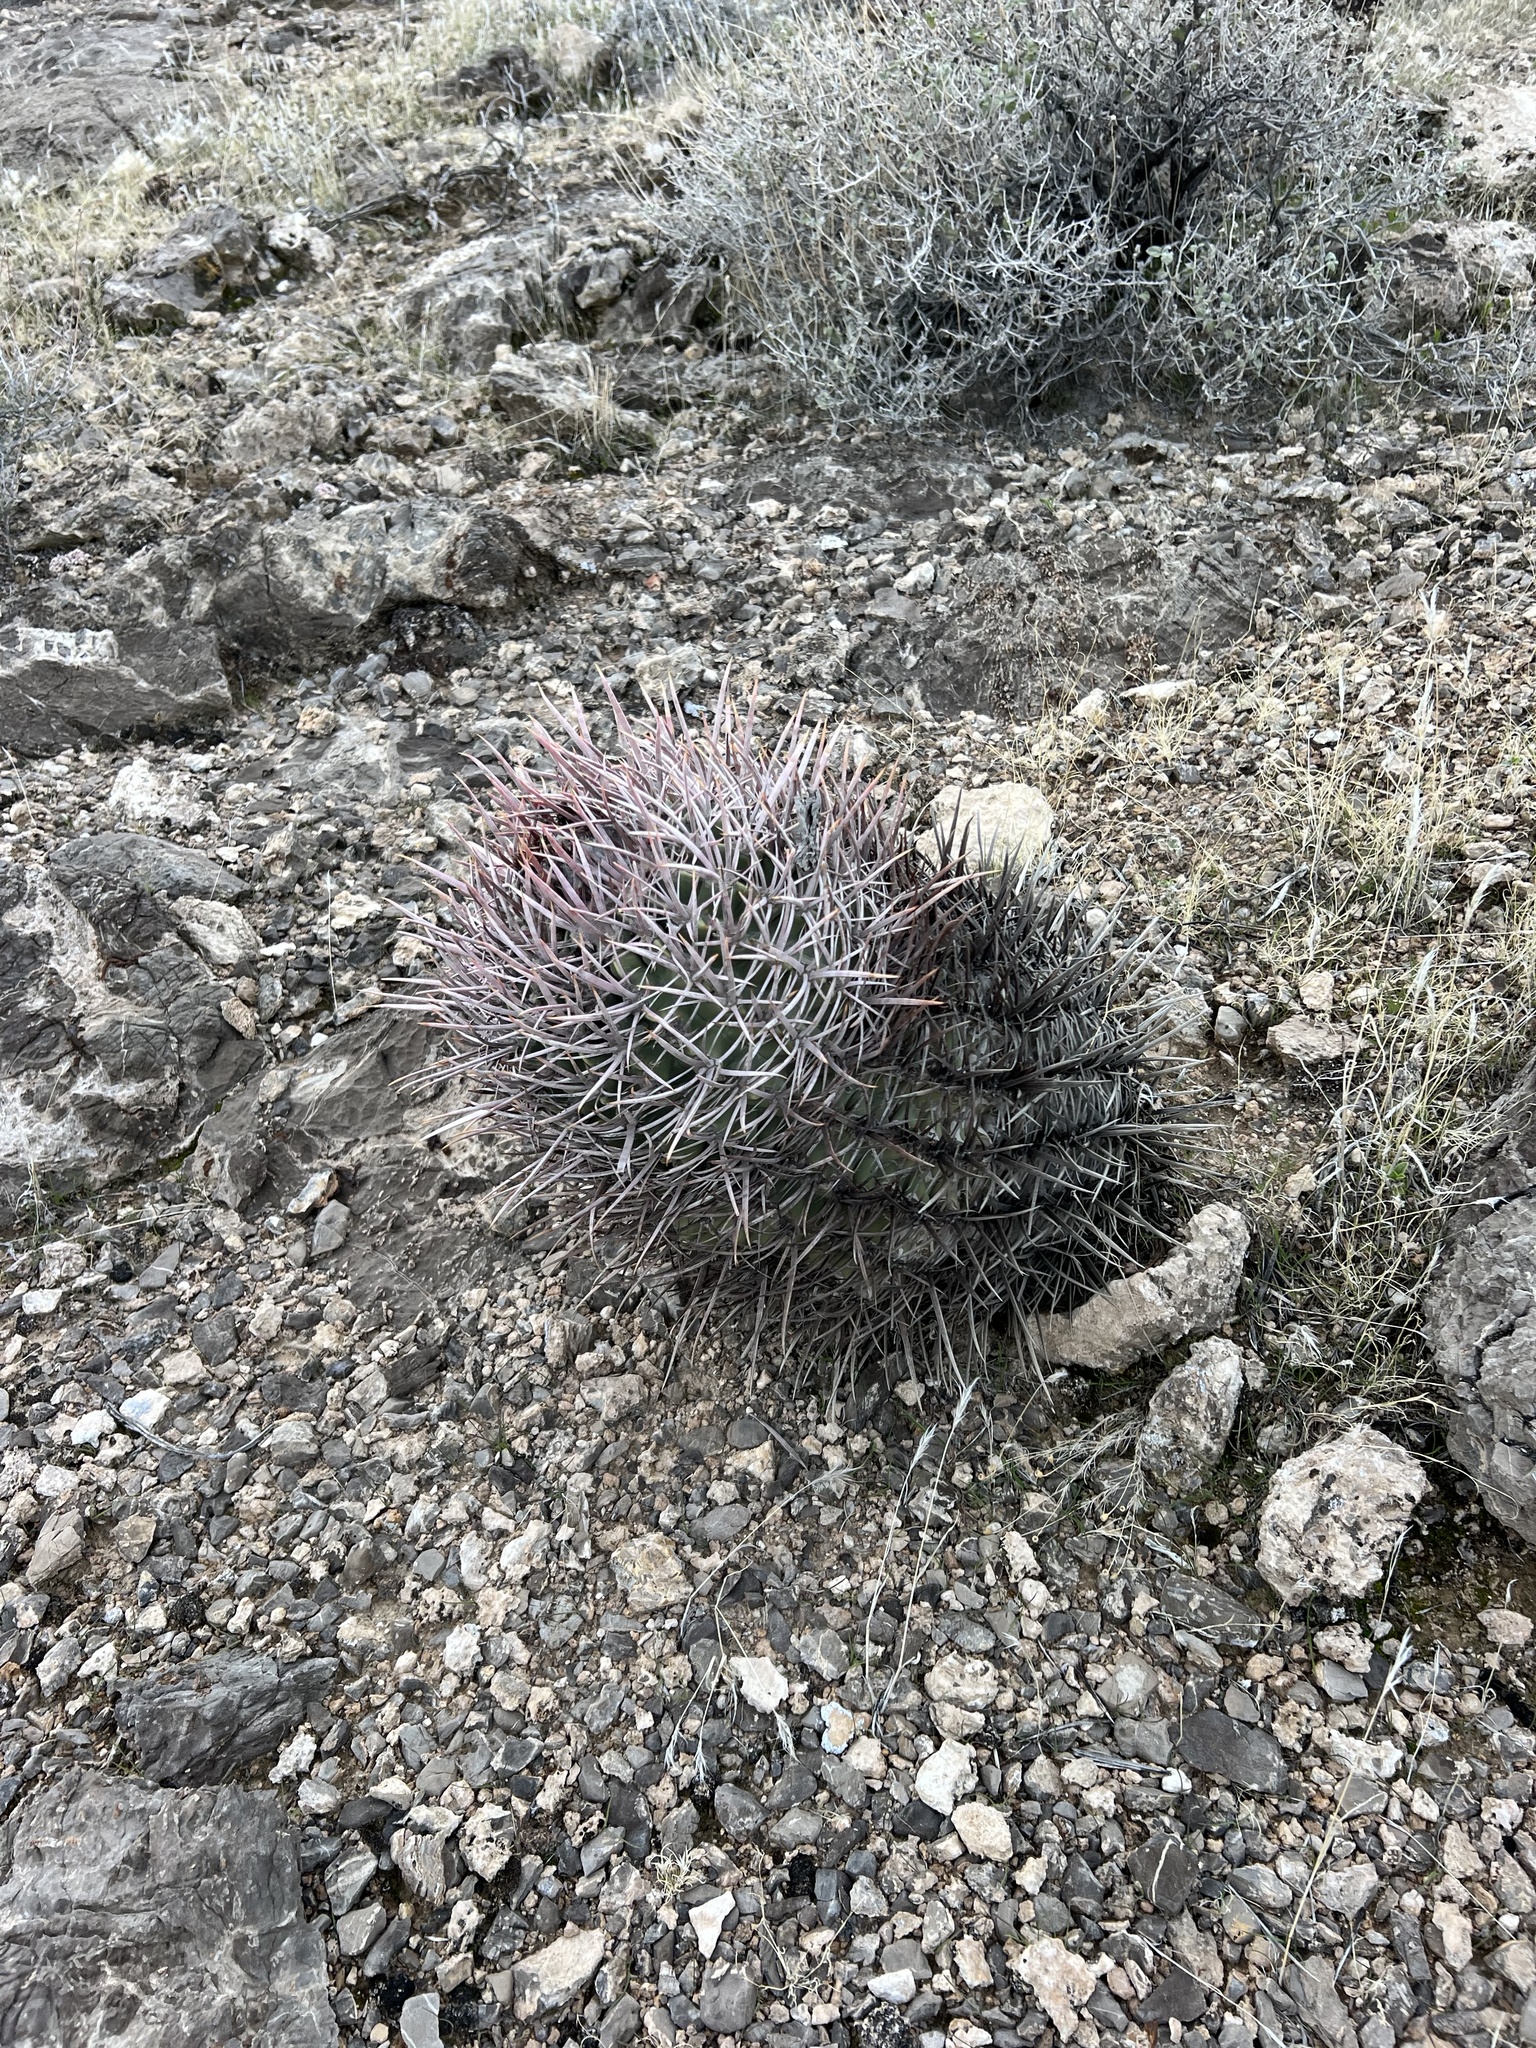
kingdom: Plantae
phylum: Tracheophyta
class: Magnoliopsida
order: Caryophyllales
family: Cactaceae
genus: Echinocactus
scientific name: Echinocactus polycephalus
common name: Cottontop cactus
